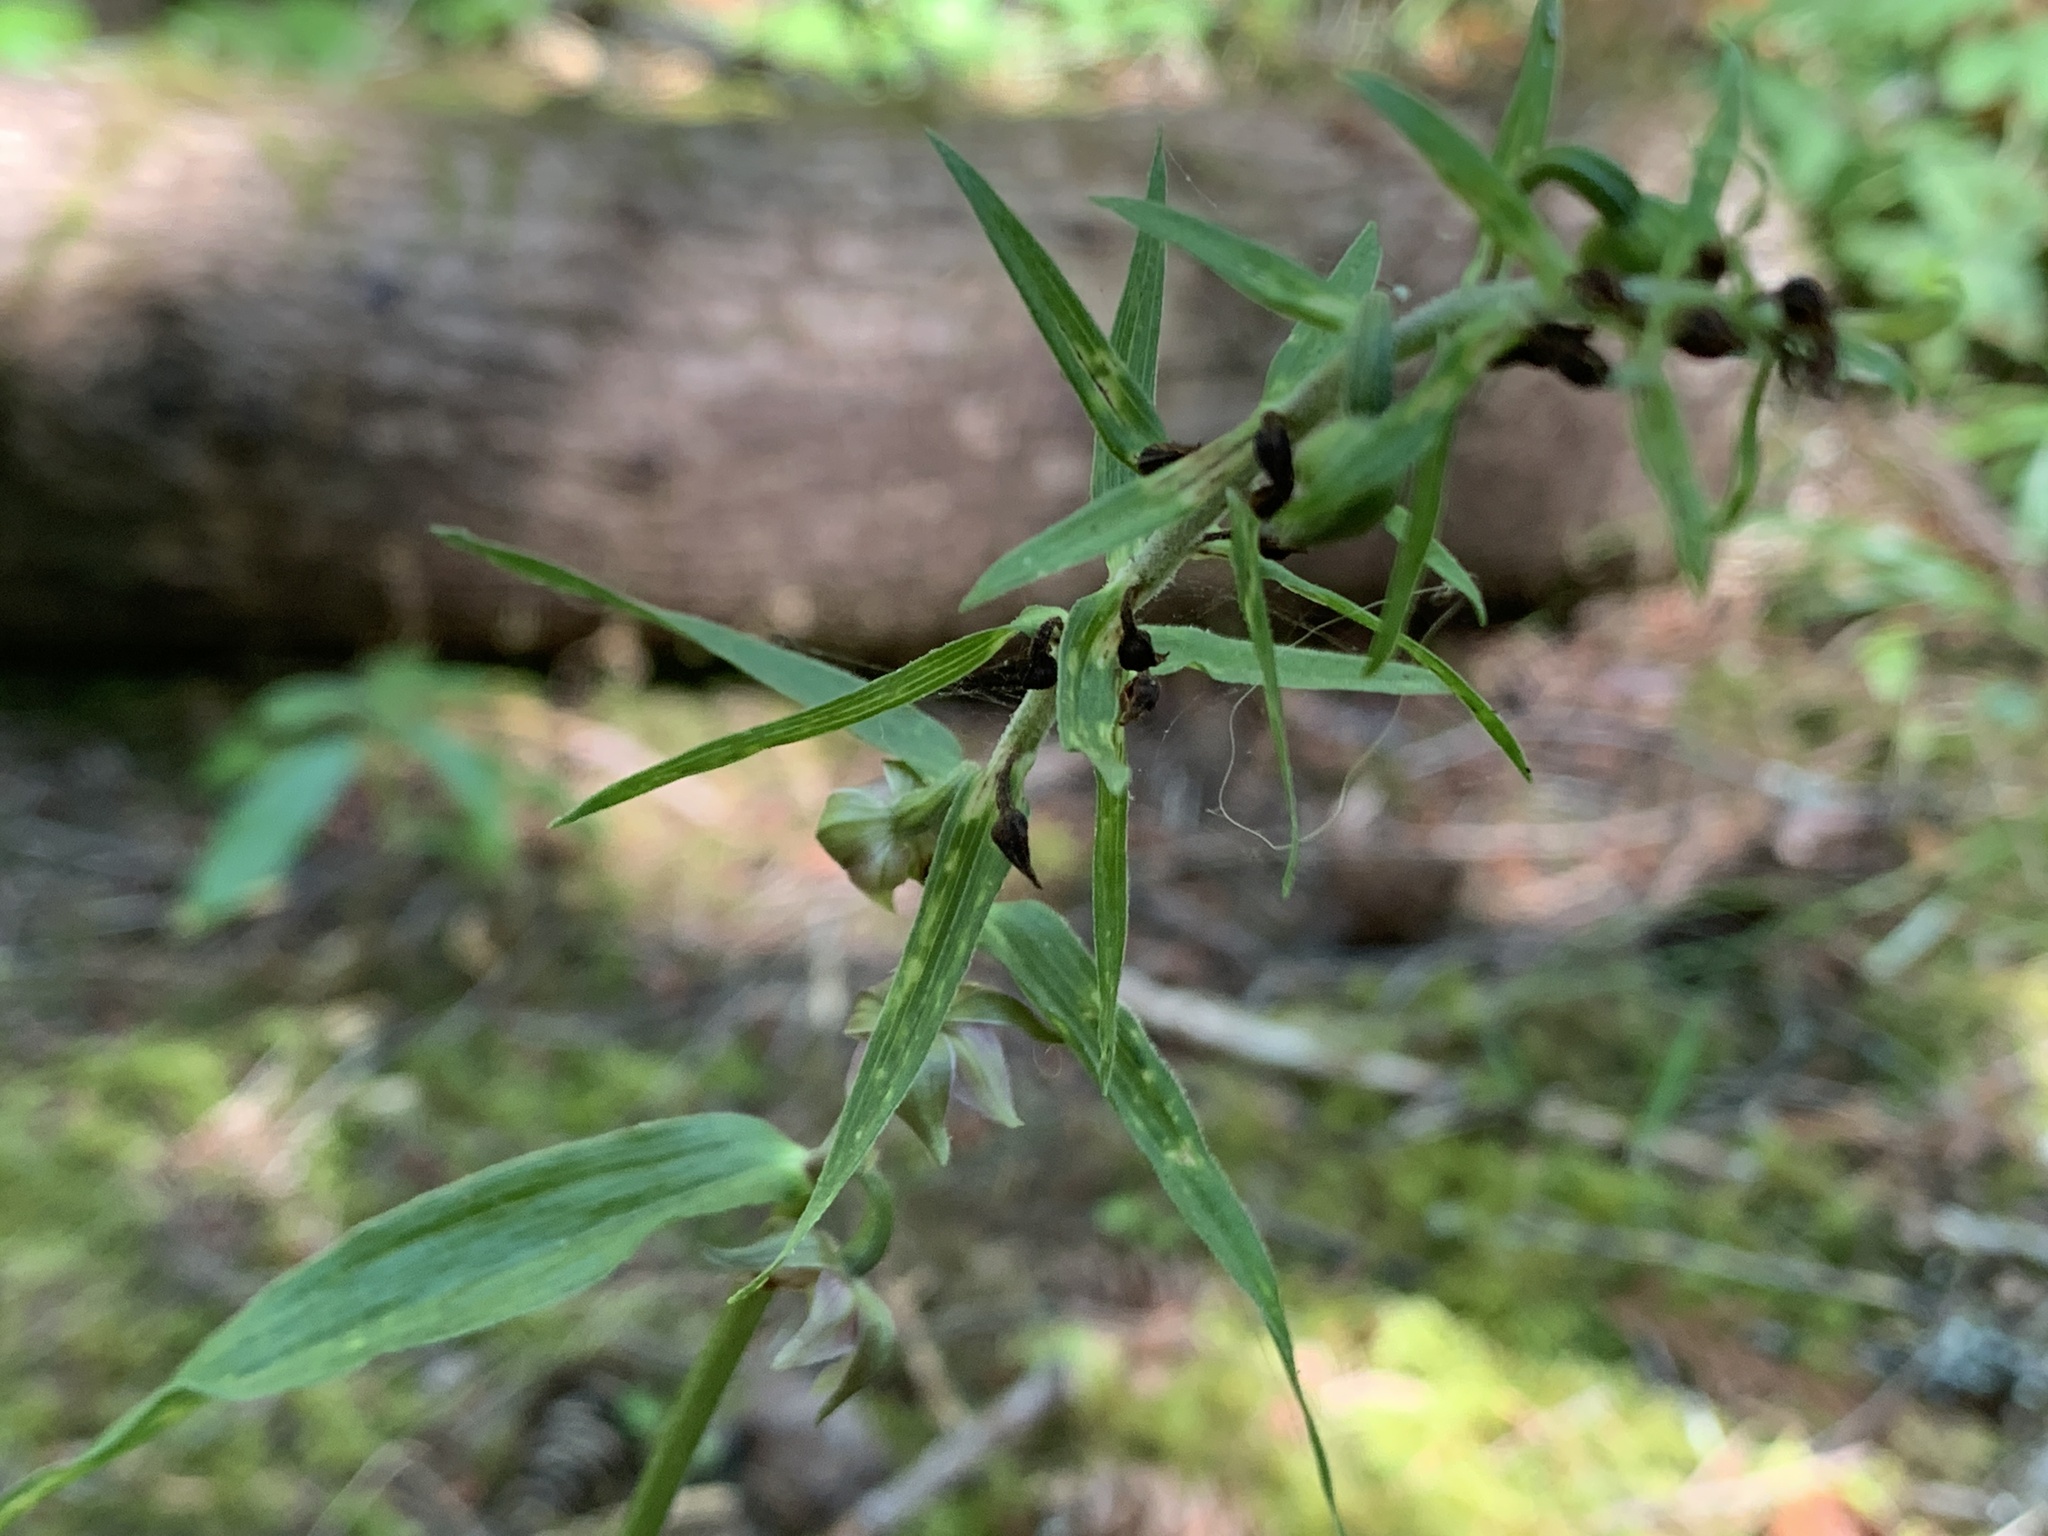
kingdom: Plantae
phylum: Tracheophyta
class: Liliopsida
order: Asparagales
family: Orchidaceae
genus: Epipactis
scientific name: Epipactis helleborine
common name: Broad-leaved helleborine
